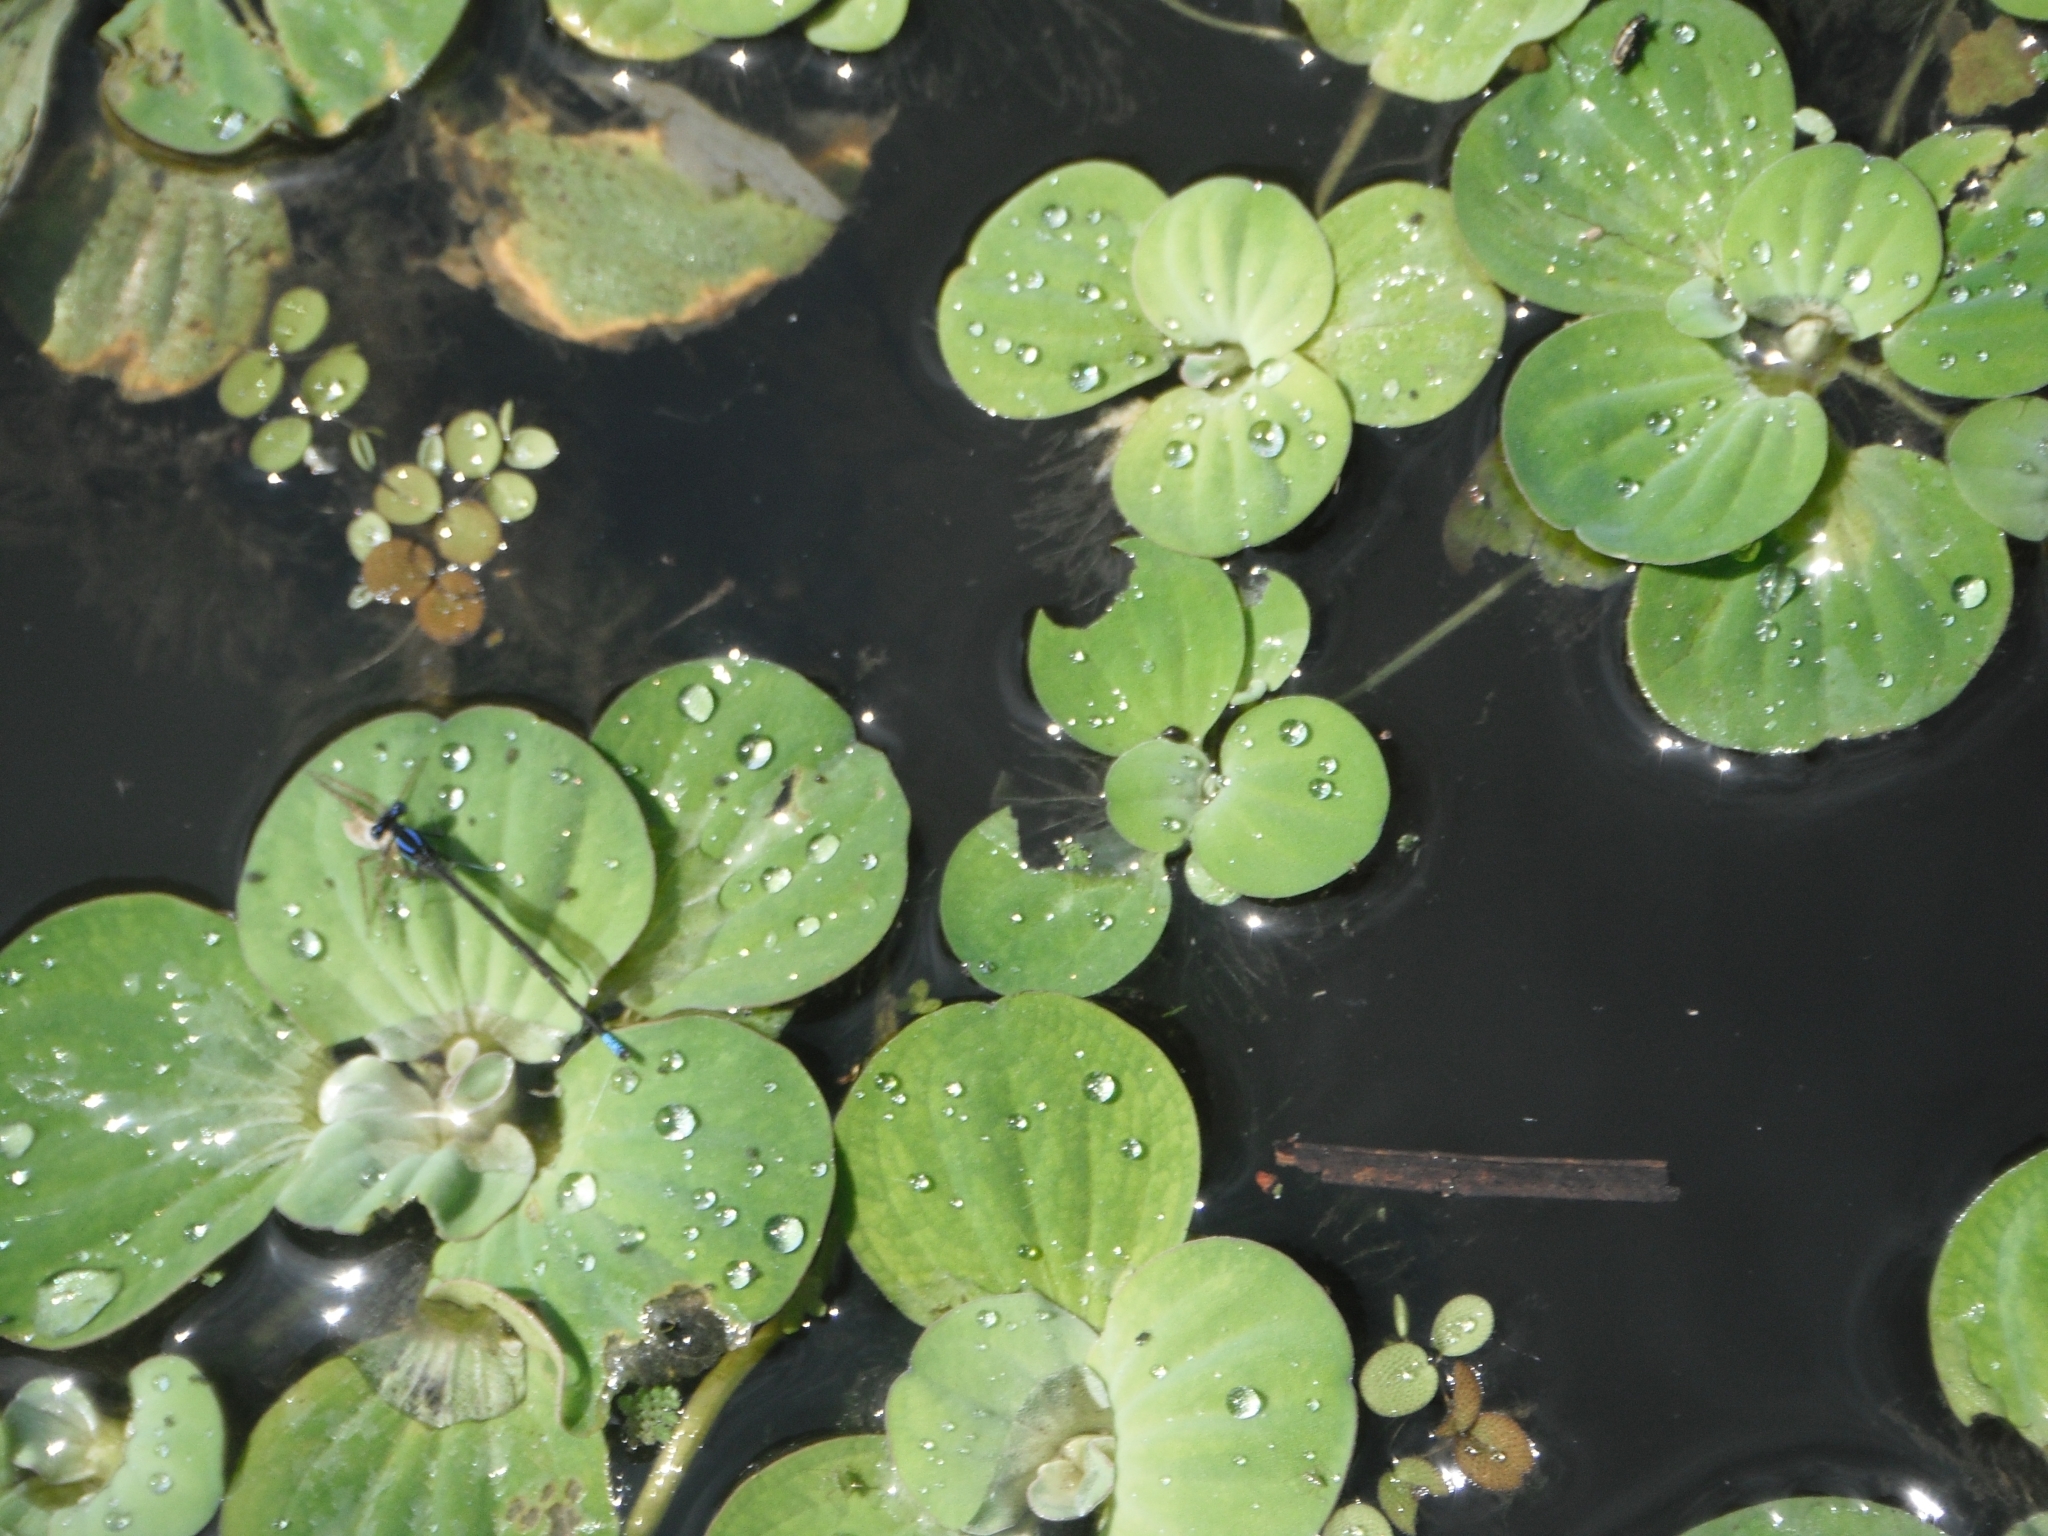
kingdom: Plantae
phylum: Tracheophyta
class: Liliopsida
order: Alismatales
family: Araceae
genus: Pistia
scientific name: Pistia stratiotes
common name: Water lettuce
